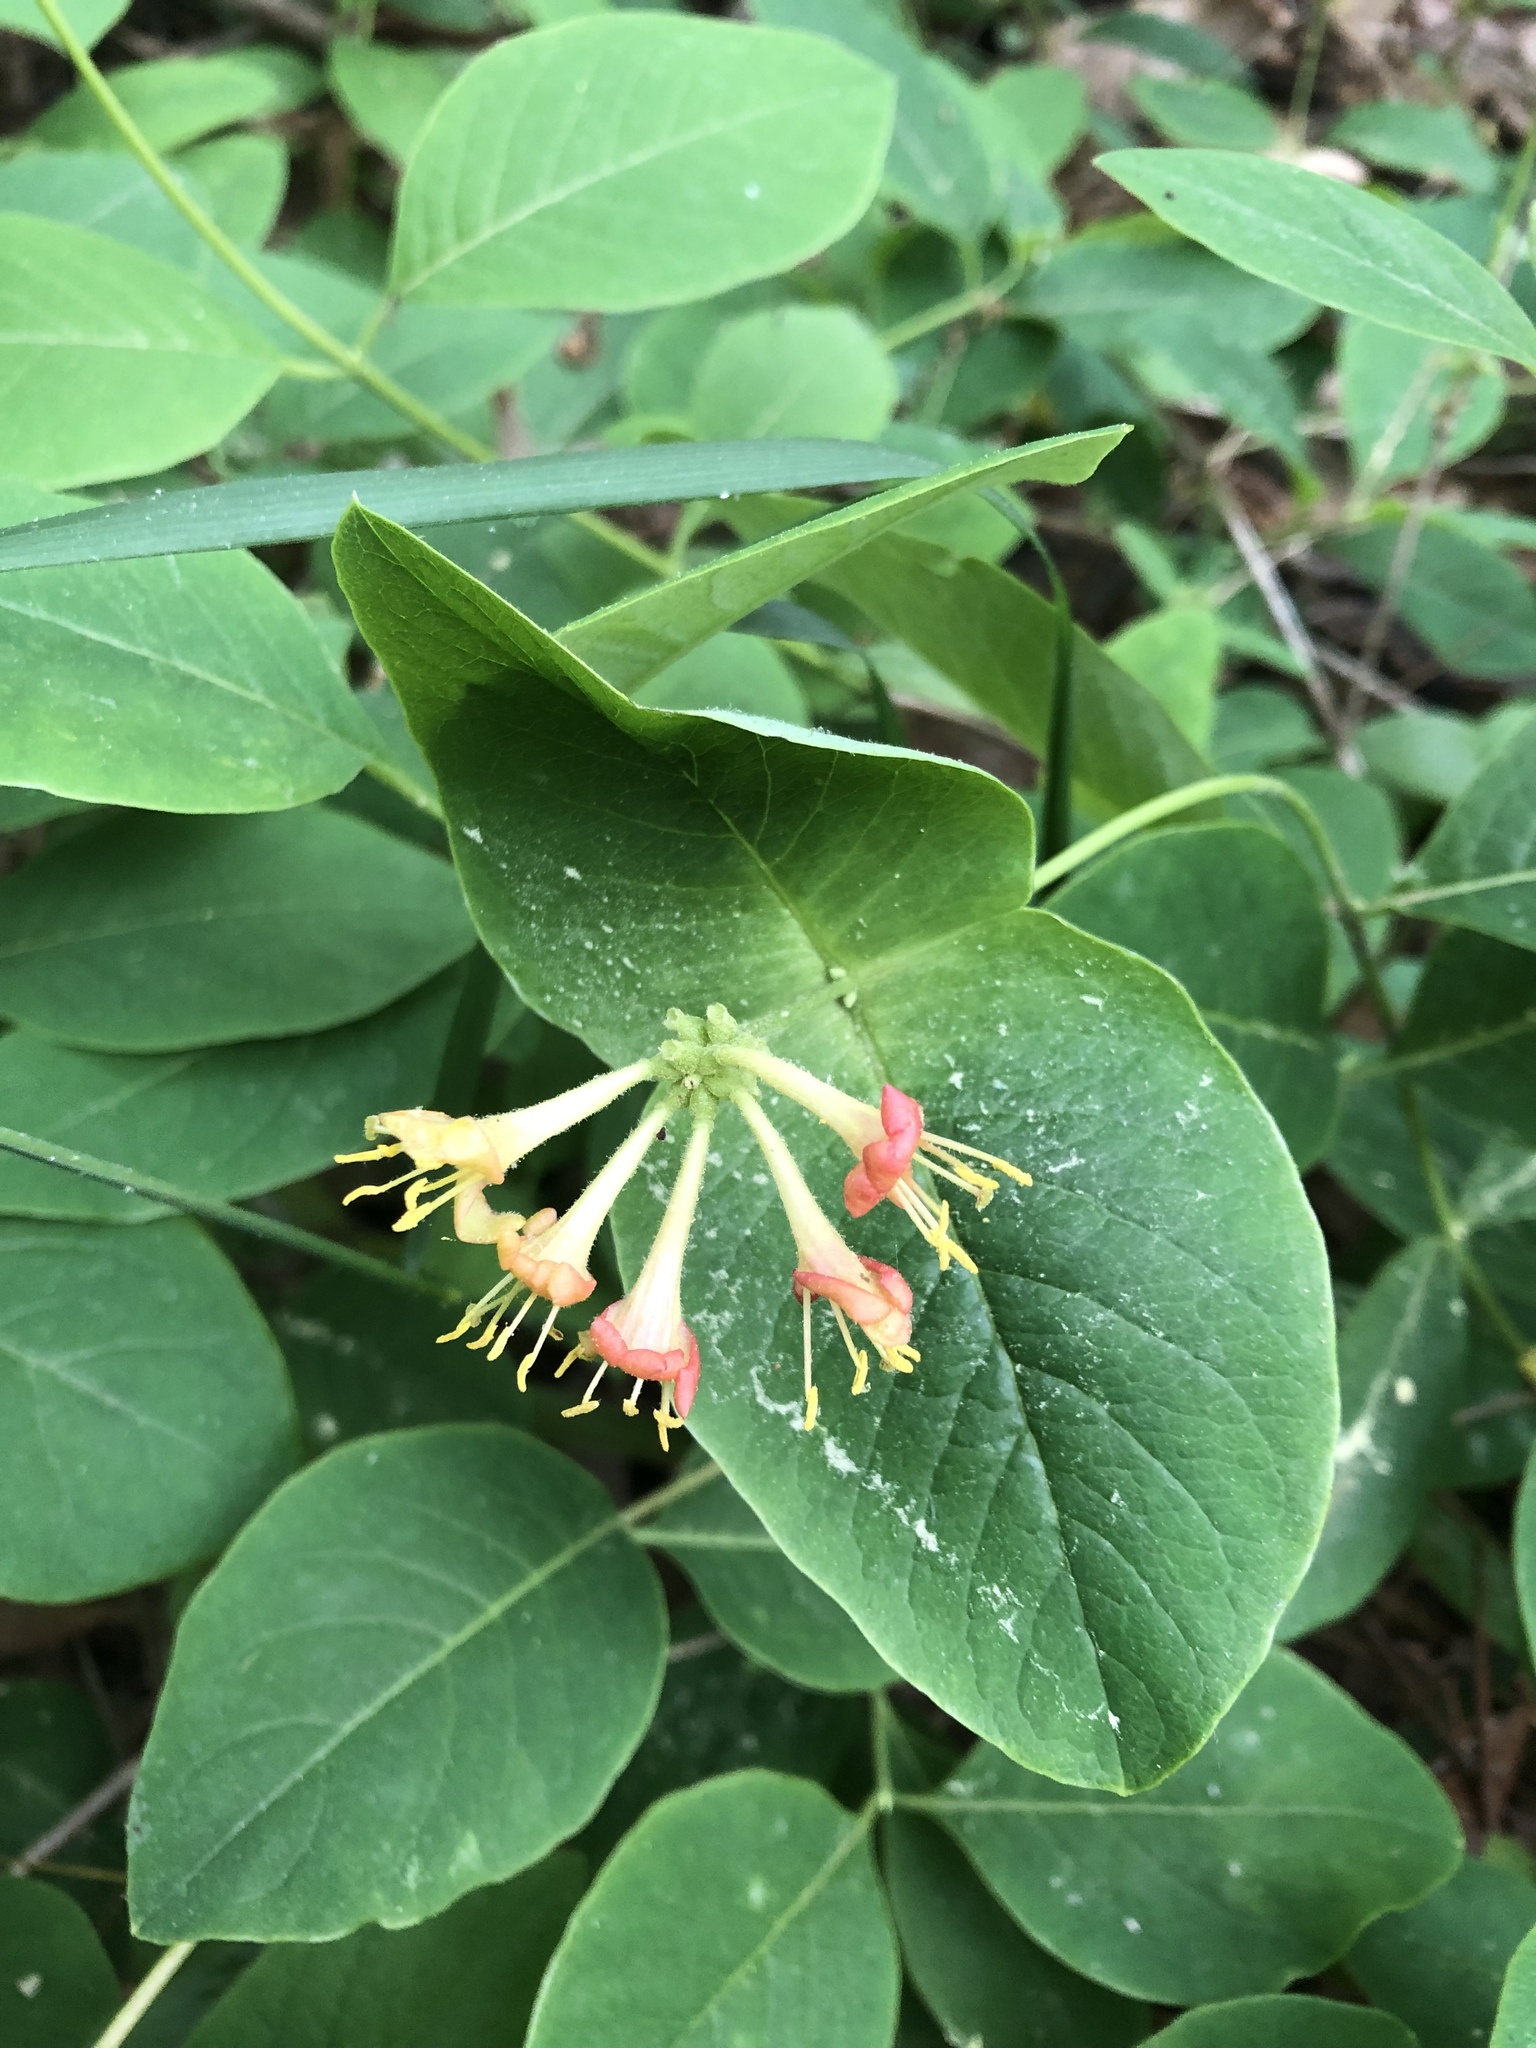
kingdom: Plantae
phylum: Tracheophyta
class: Magnoliopsida
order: Dipsacales
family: Caprifoliaceae
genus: Lonicera
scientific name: Lonicera dioica
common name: Limber honeysuckle
